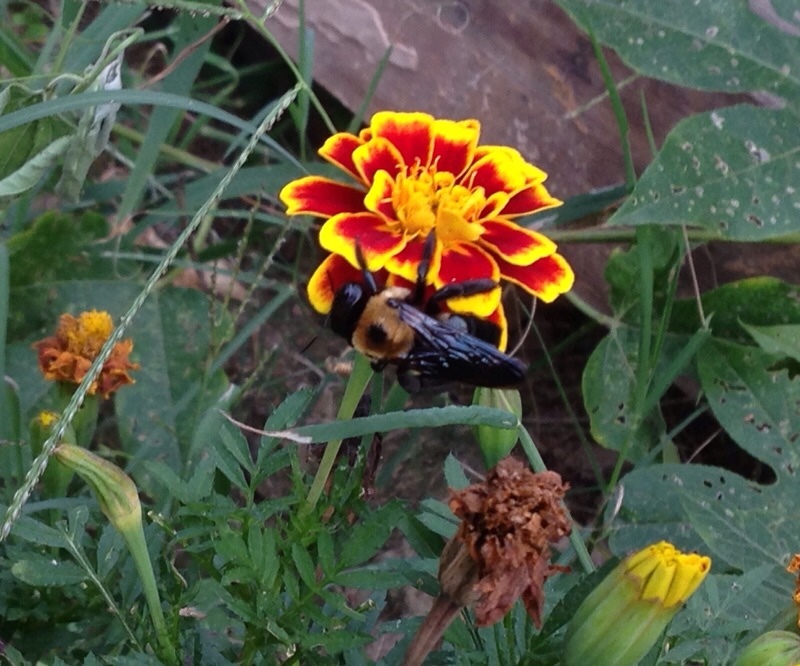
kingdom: Animalia
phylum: Arthropoda
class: Insecta
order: Hymenoptera
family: Apidae
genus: Xylocopa
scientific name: Xylocopa virginica
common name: Carpenter bee
